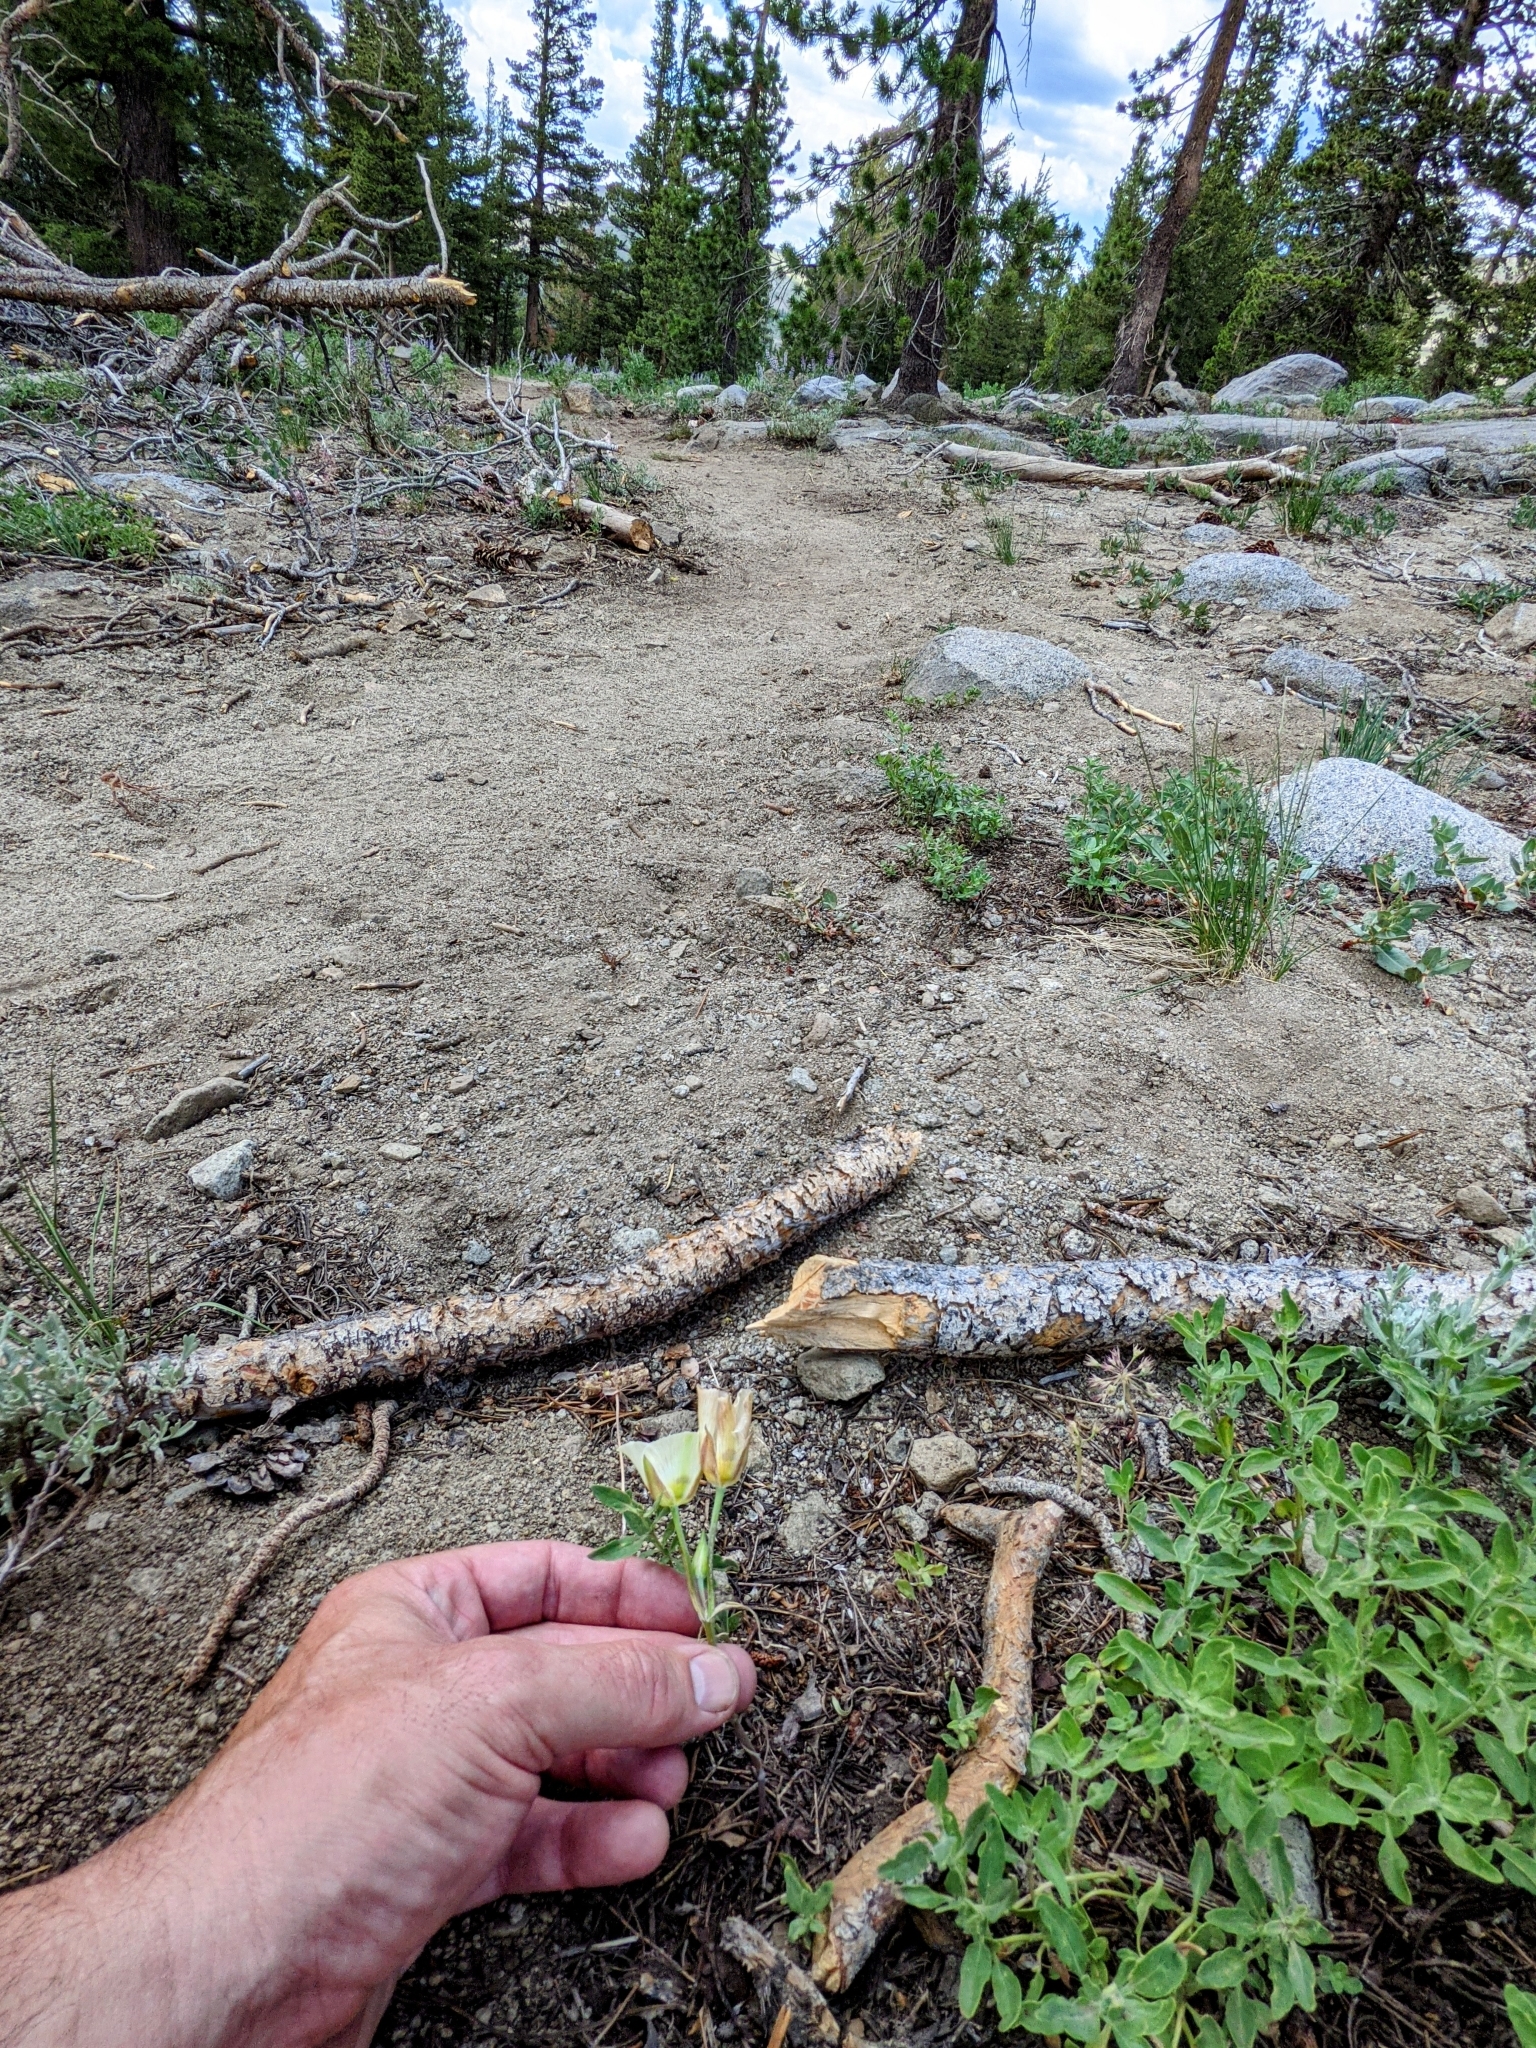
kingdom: Plantae
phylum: Tracheophyta
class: Liliopsida
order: Liliales
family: Liliaceae
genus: Calochortus
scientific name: Calochortus leichtlinii
